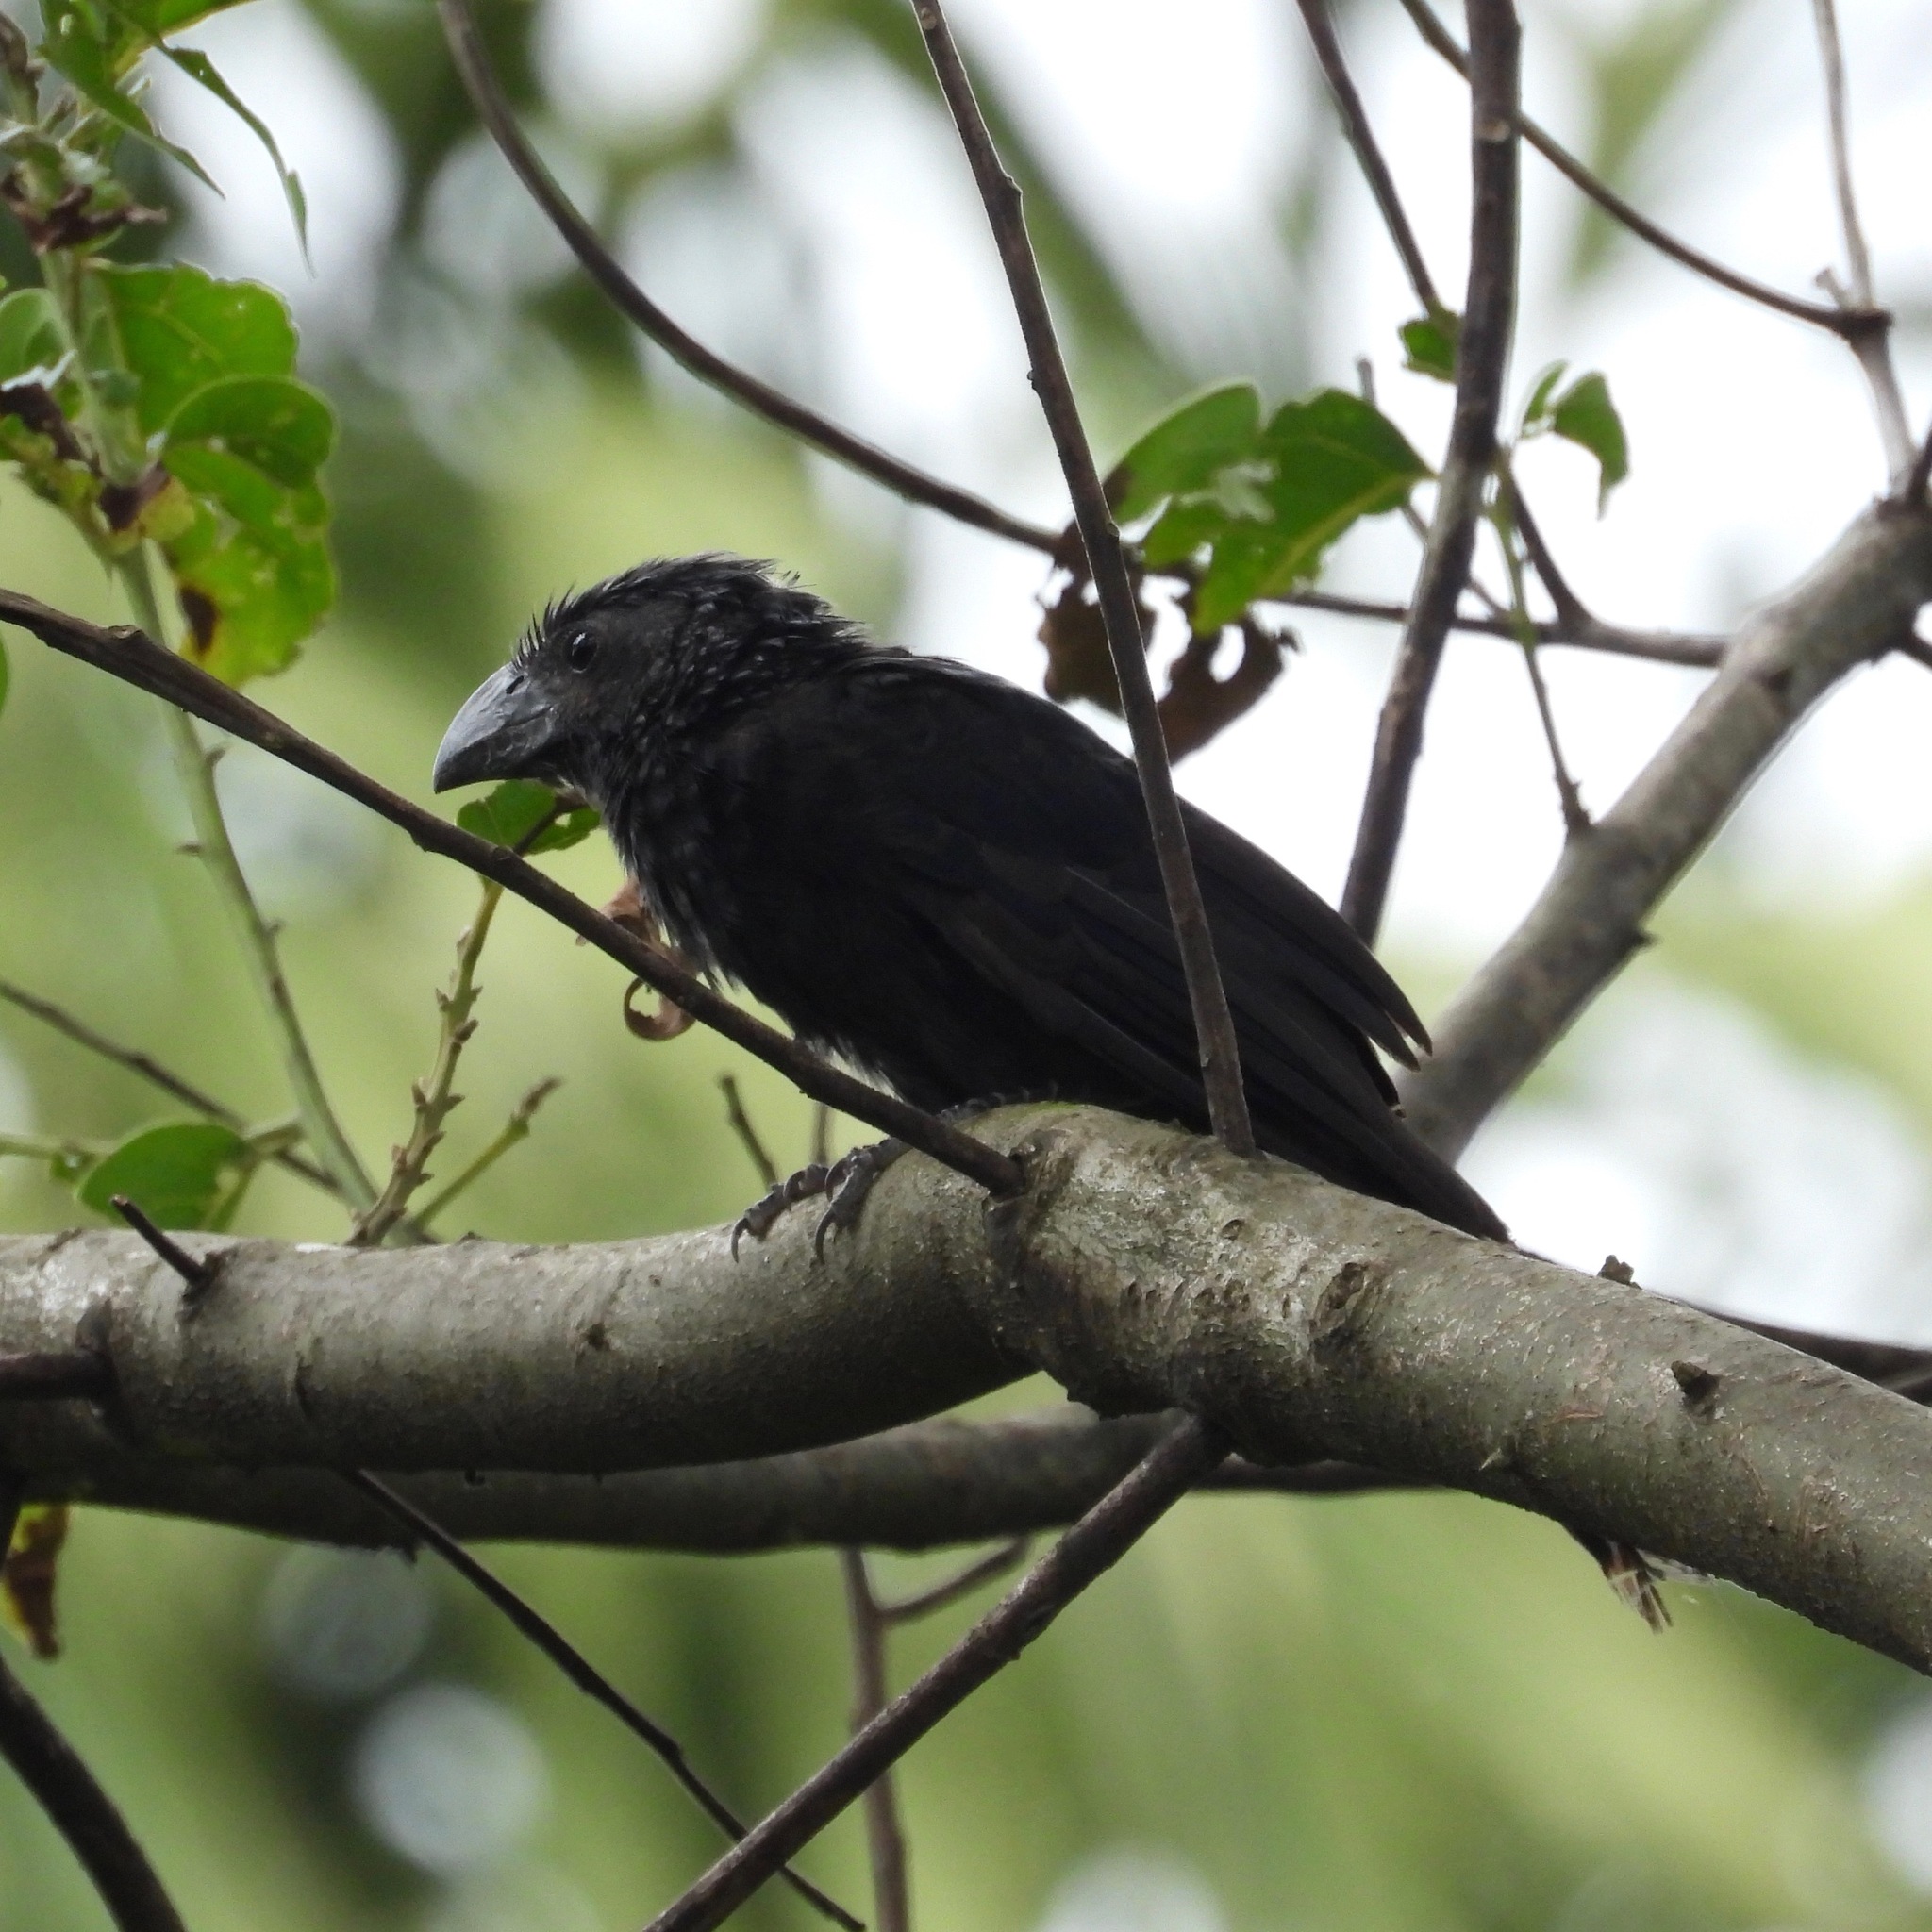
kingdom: Animalia
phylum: Chordata
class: Aves
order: Cuculiformes
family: Cuculidae
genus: Crotophaga
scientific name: Crotophaga sulcirostris
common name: Groove-billed ani
